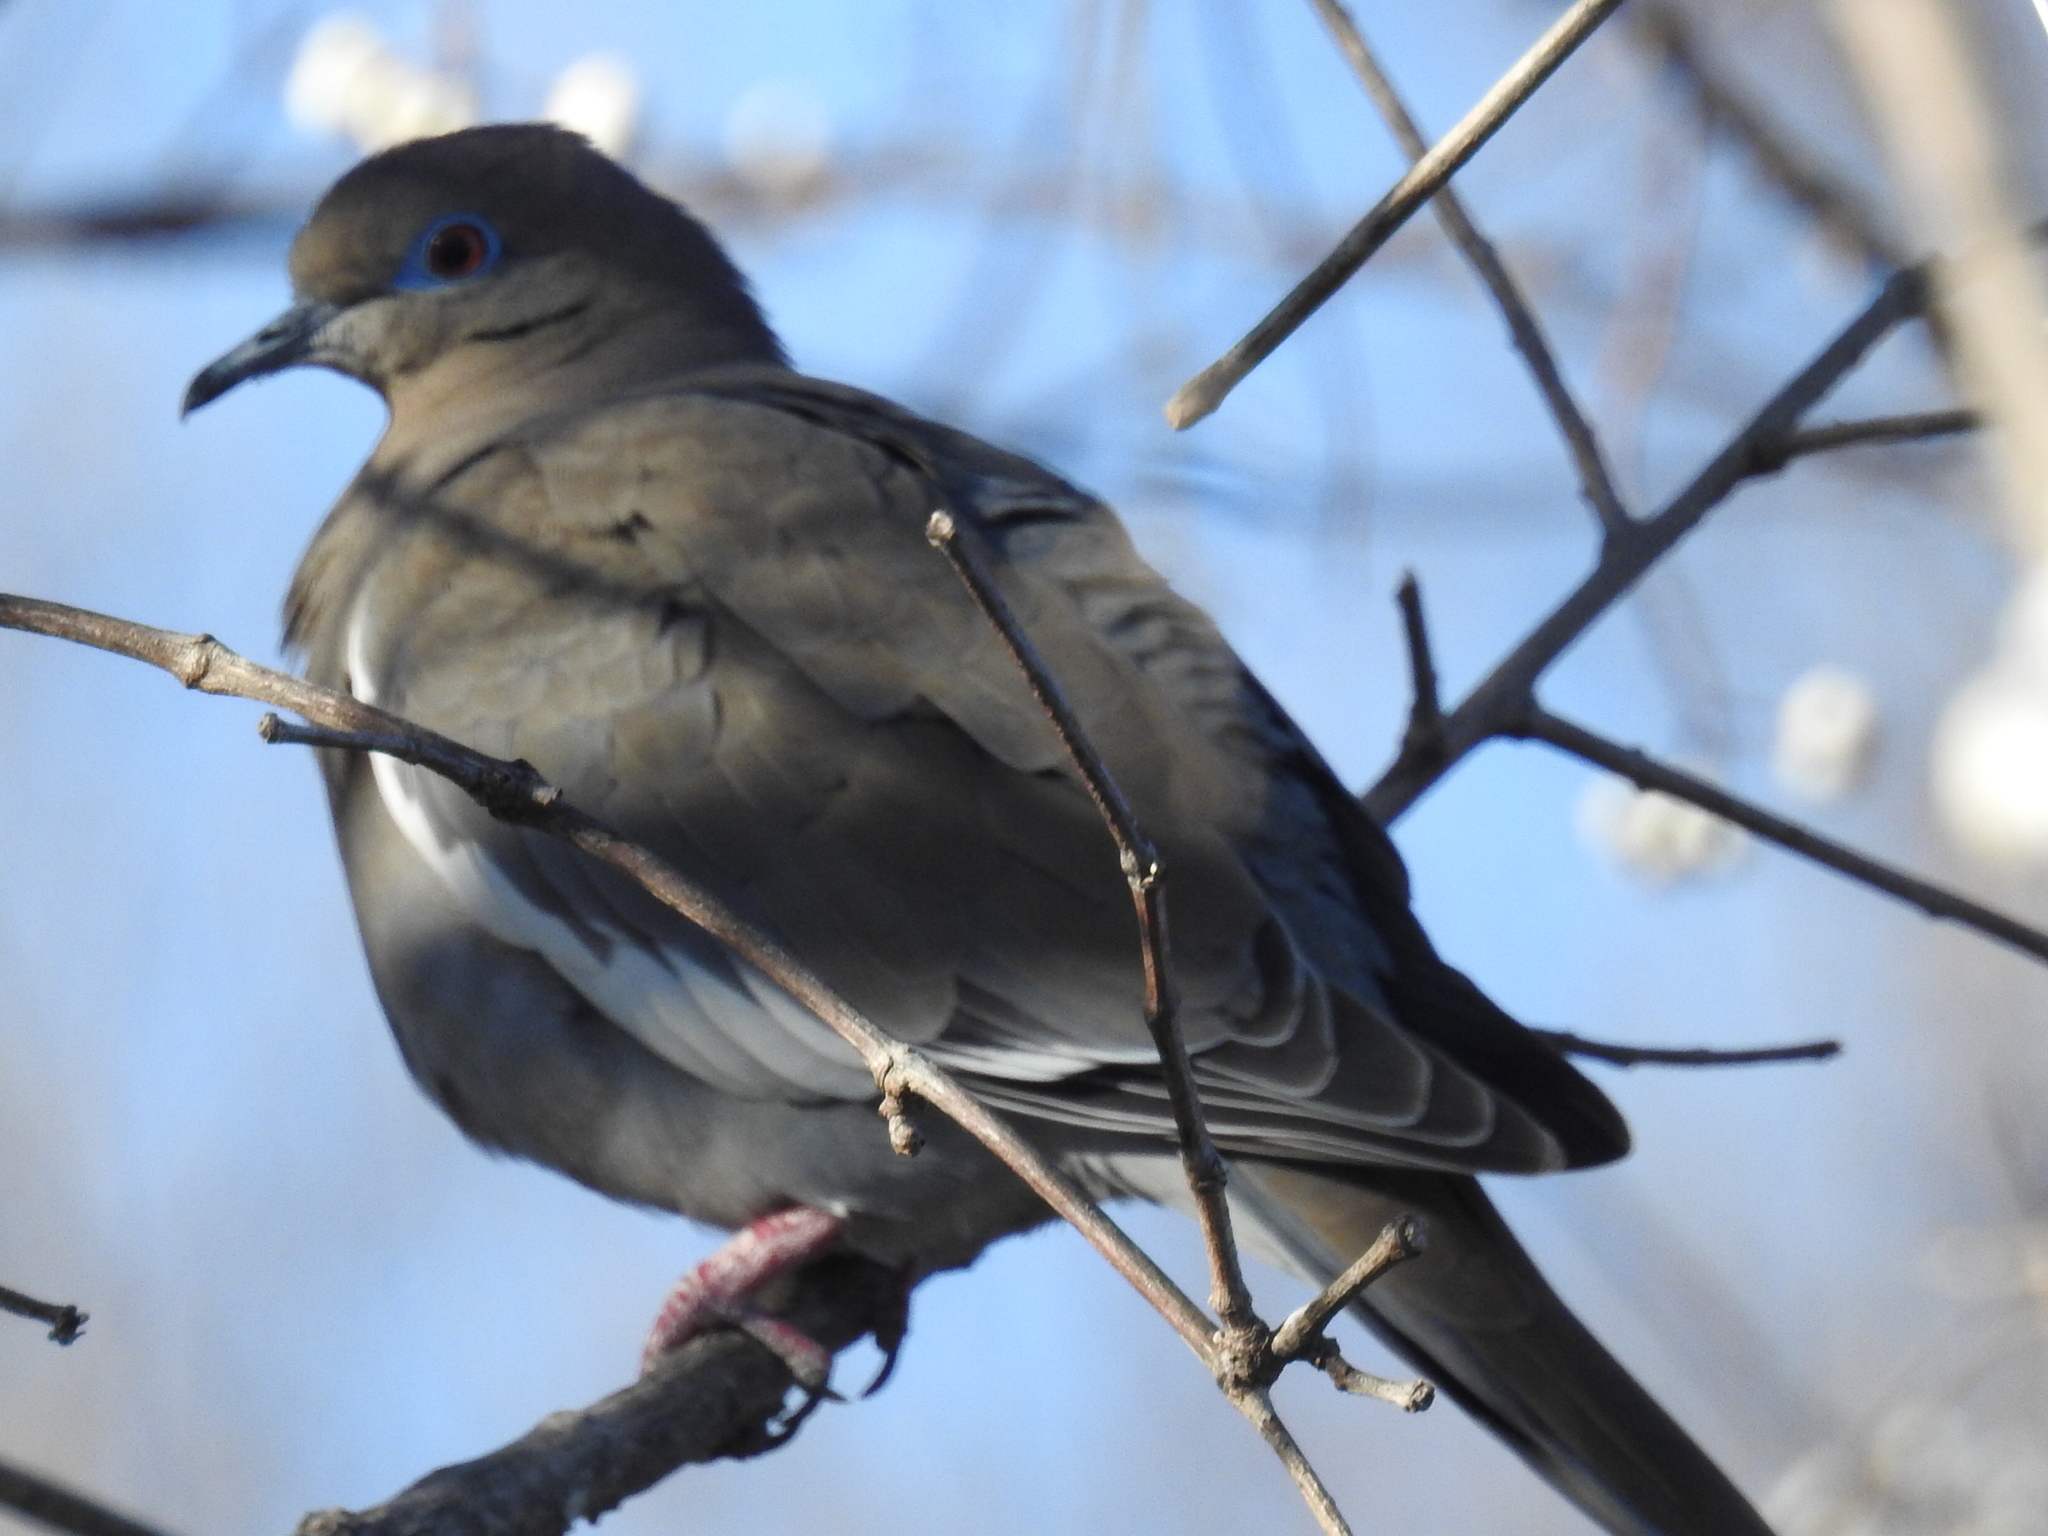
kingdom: Animalia
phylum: Chordata
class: Aves
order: Columbiformes
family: Columbidae
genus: Zenaida
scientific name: Zenaida asiatica
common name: White-winged dove
